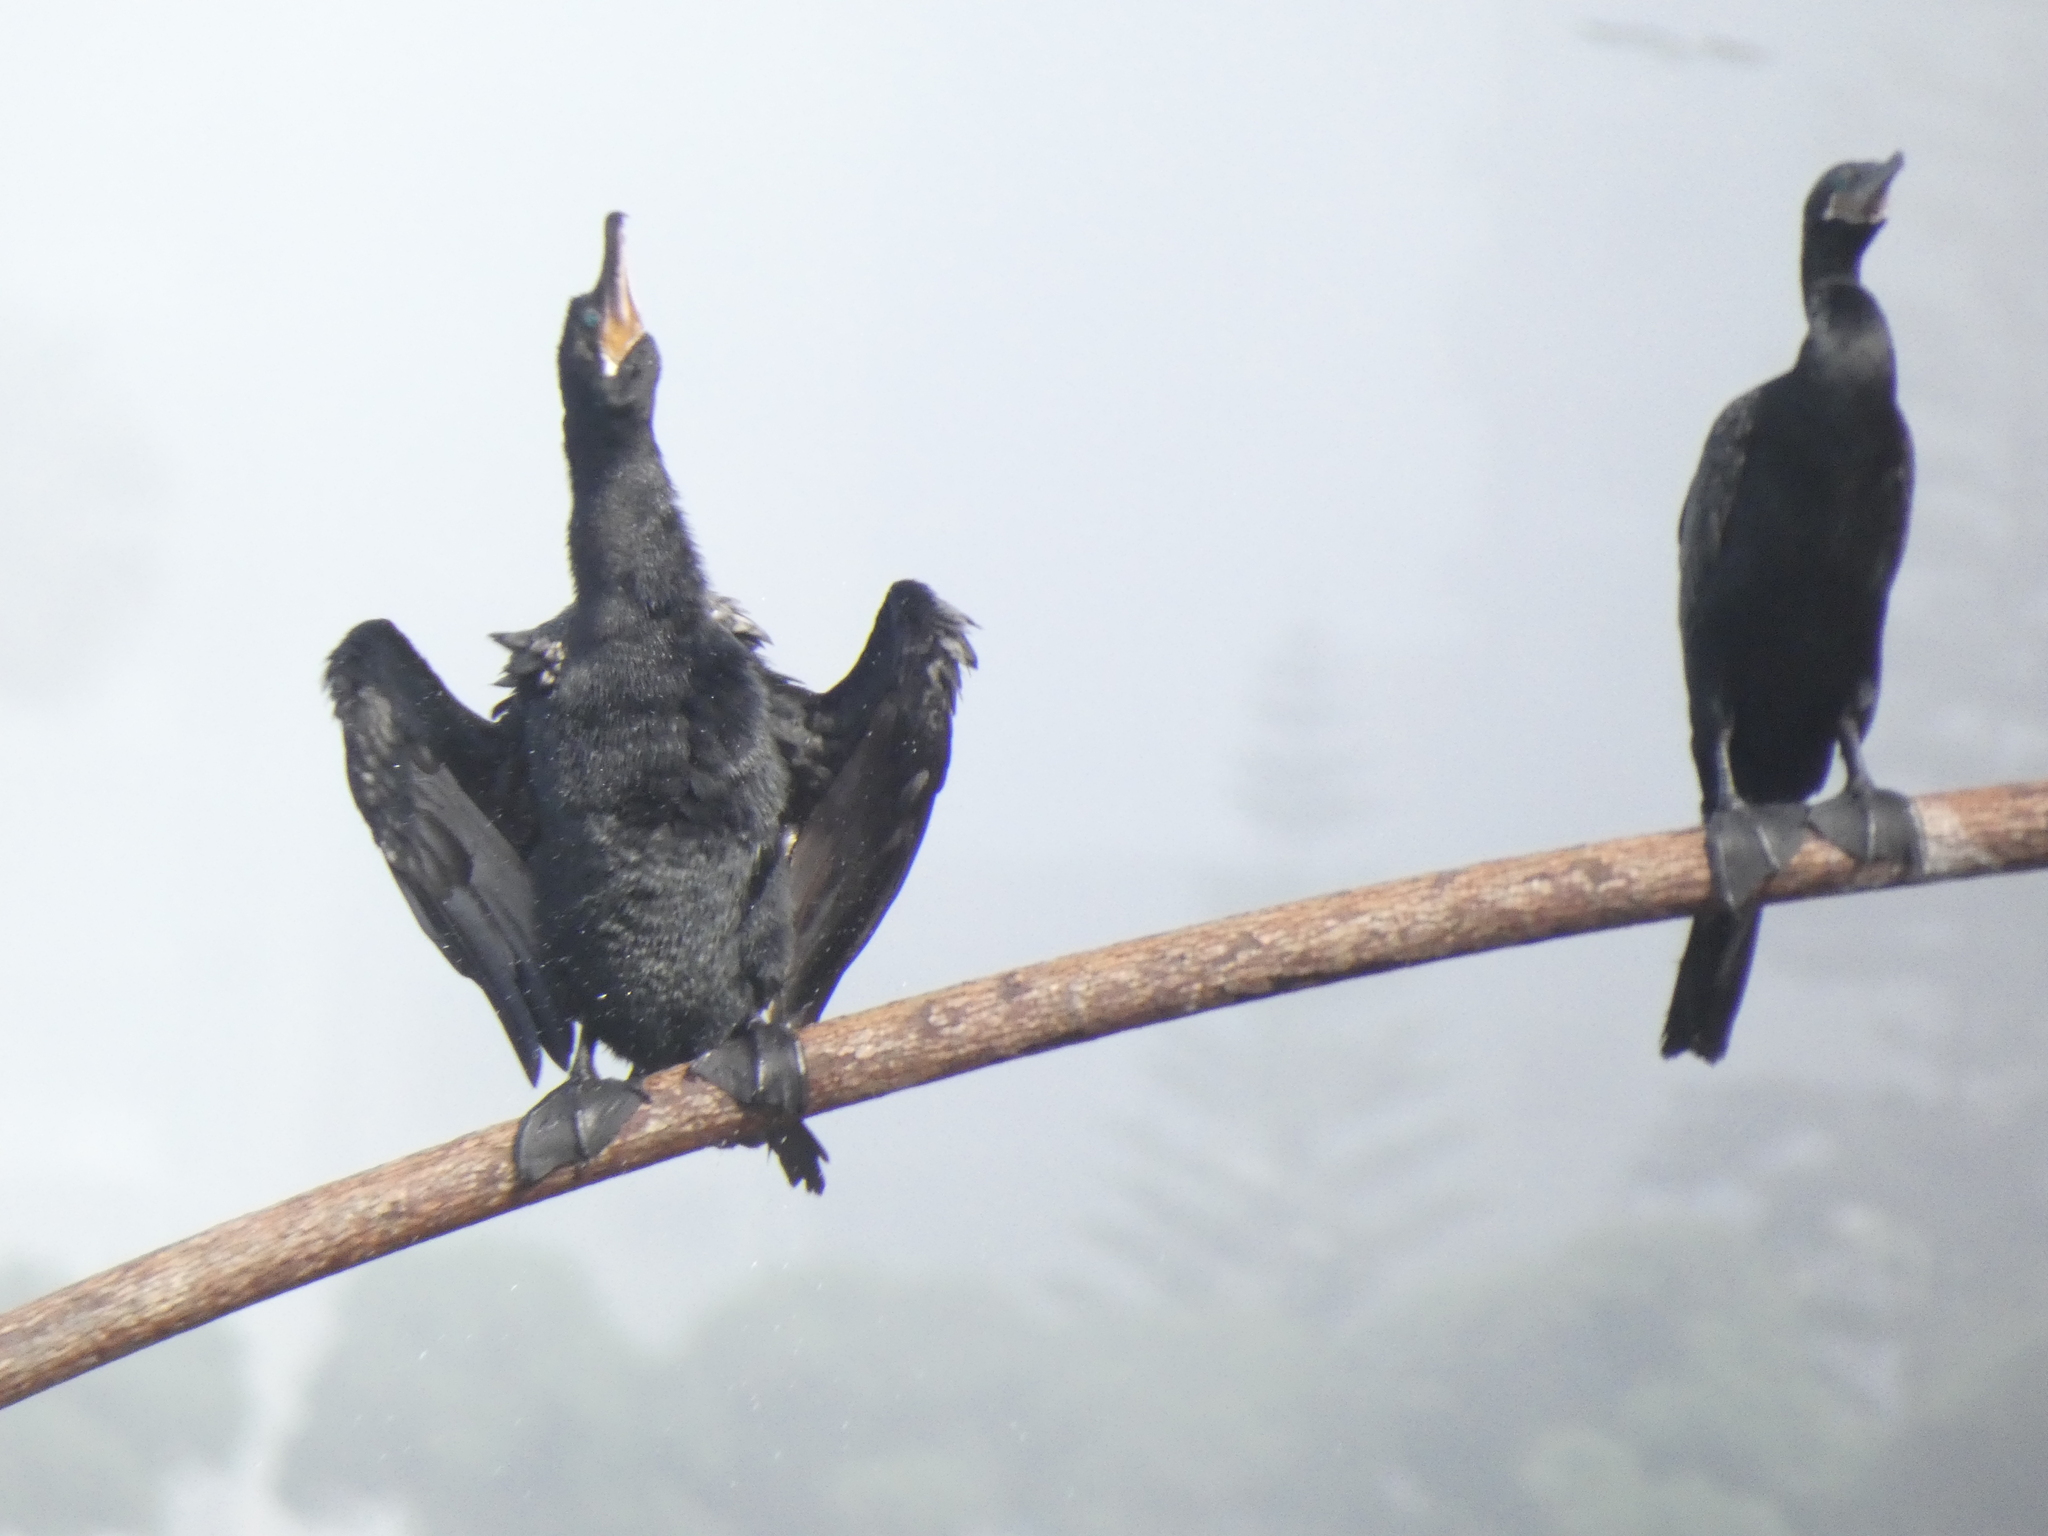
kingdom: Animalia
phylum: Chordata
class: Aves
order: Suliformes
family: Phalacrocoracidae
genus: Phalacrocorax
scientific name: Phalacrocorax brasilianus
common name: Neotropic cormorant
